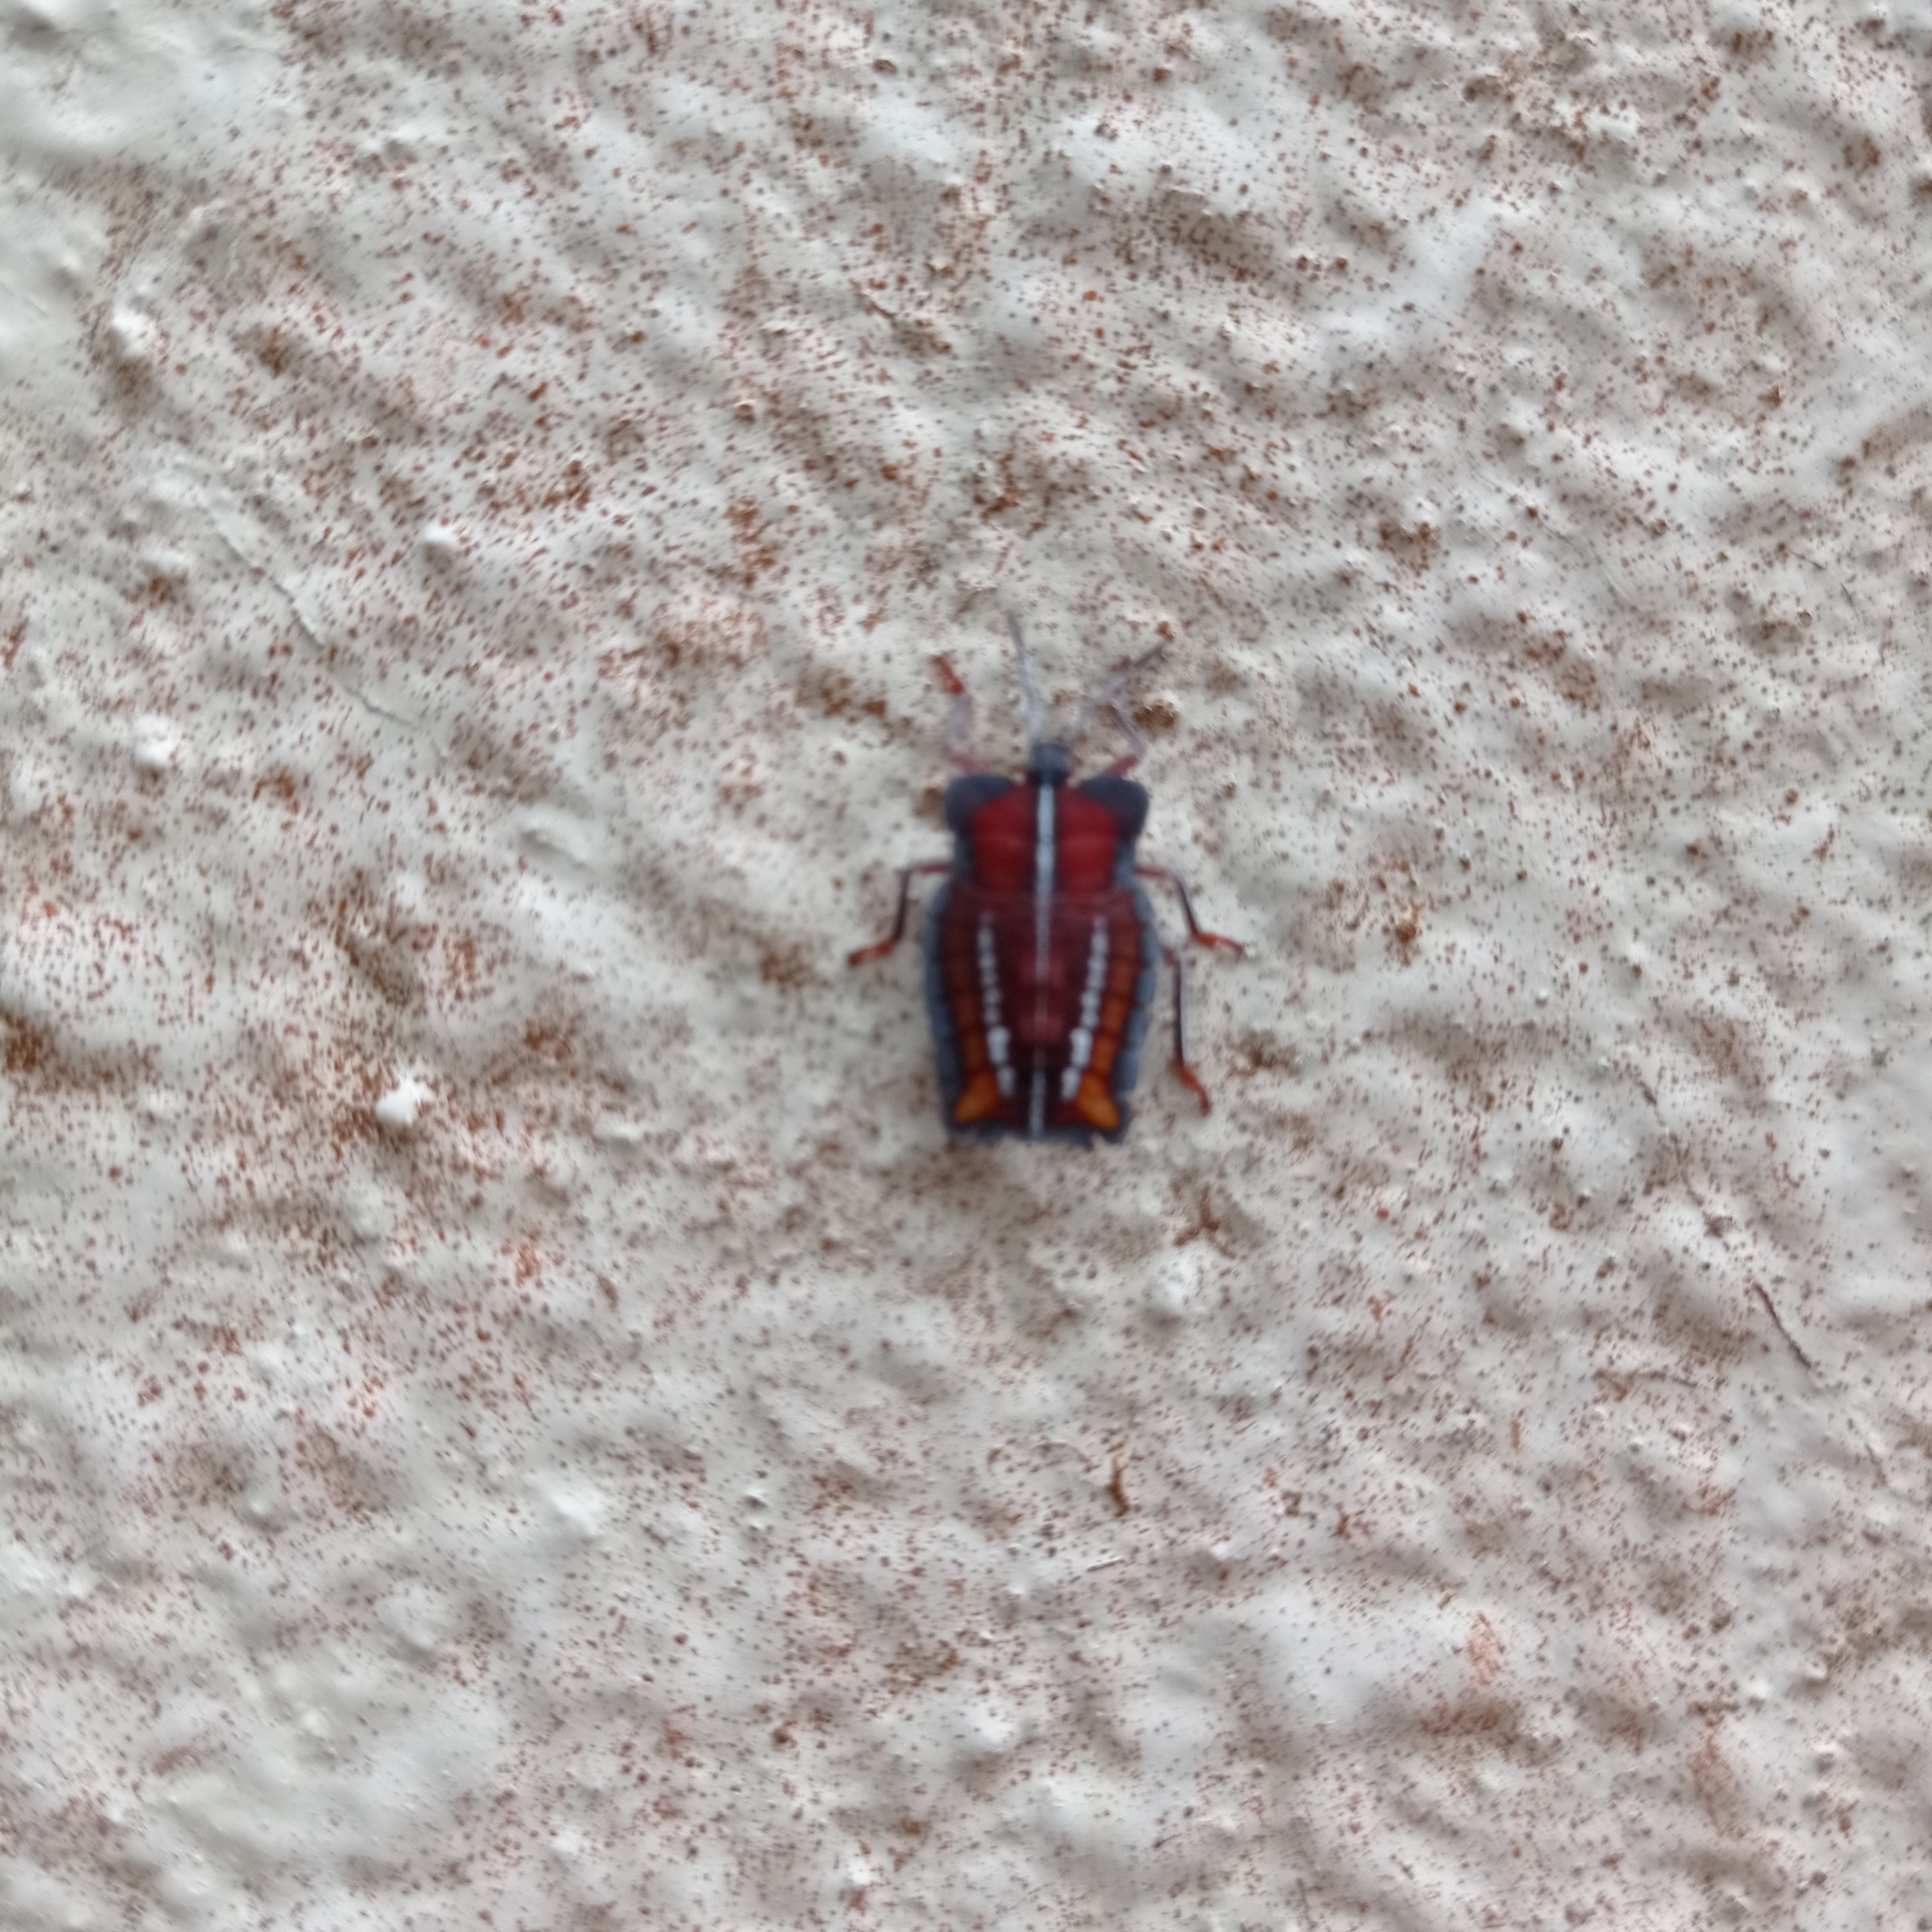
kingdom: Animalia
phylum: Arthropoda
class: Insecta
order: Hemiptera
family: Tessaratomidae
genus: Tessaratoma
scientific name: Tessaratoma papillosa
